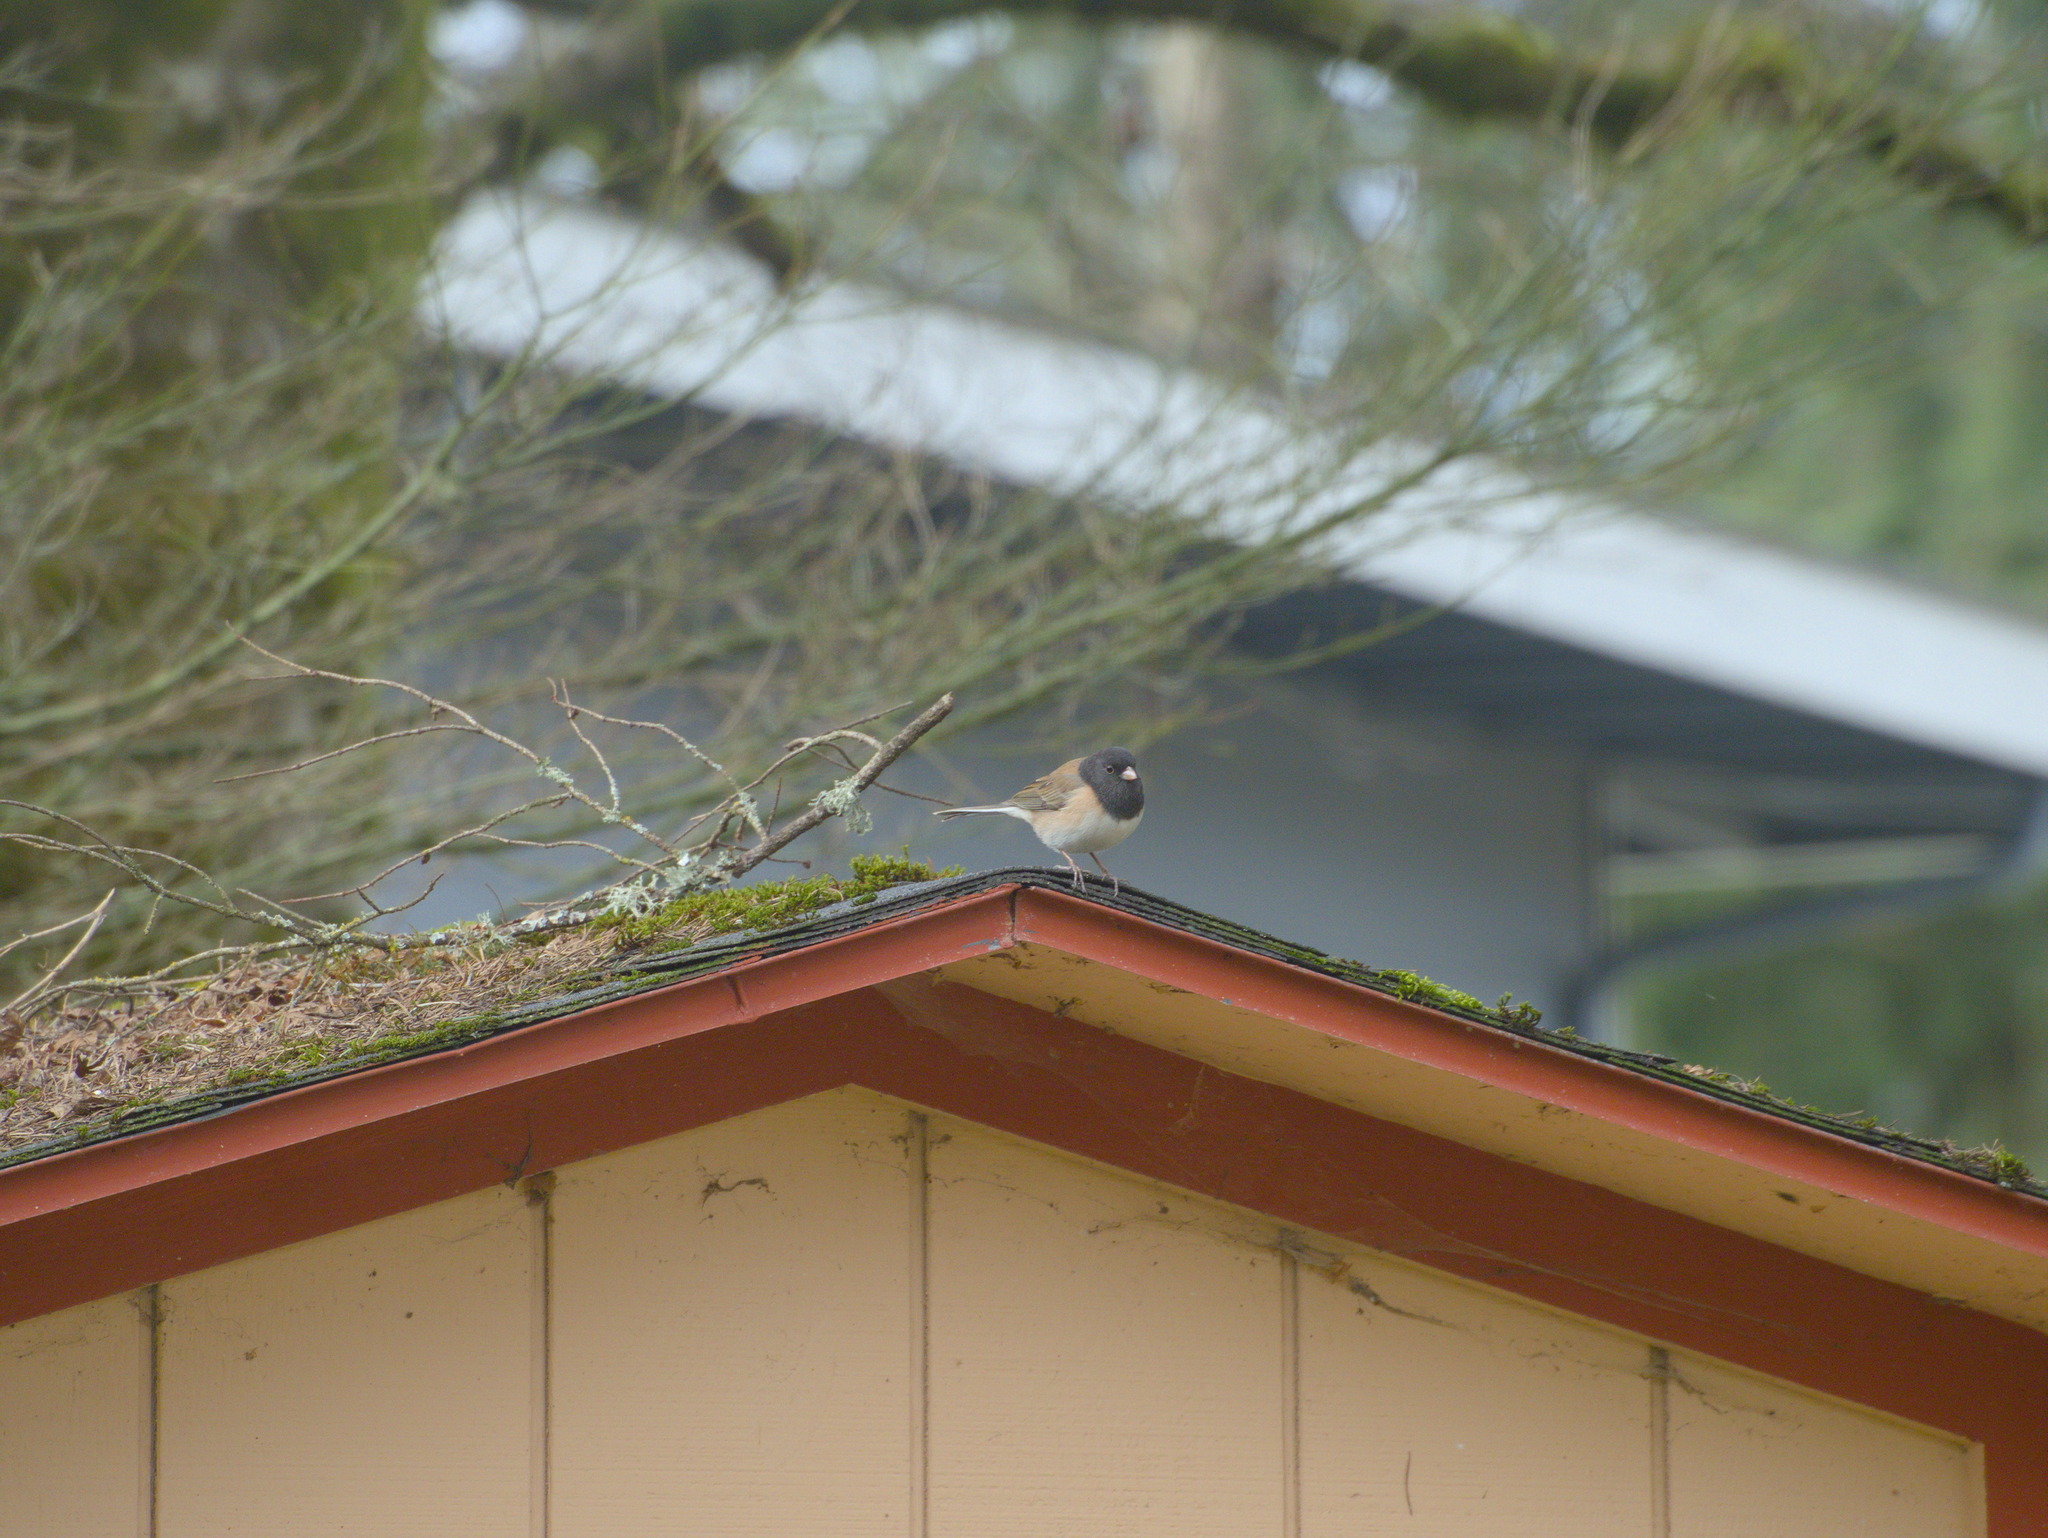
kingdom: Animalia
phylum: Chordata
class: Aves
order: Passeriformes
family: Passerellidae
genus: Junco
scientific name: Junco hyemalis
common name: Dark-eyed junco
